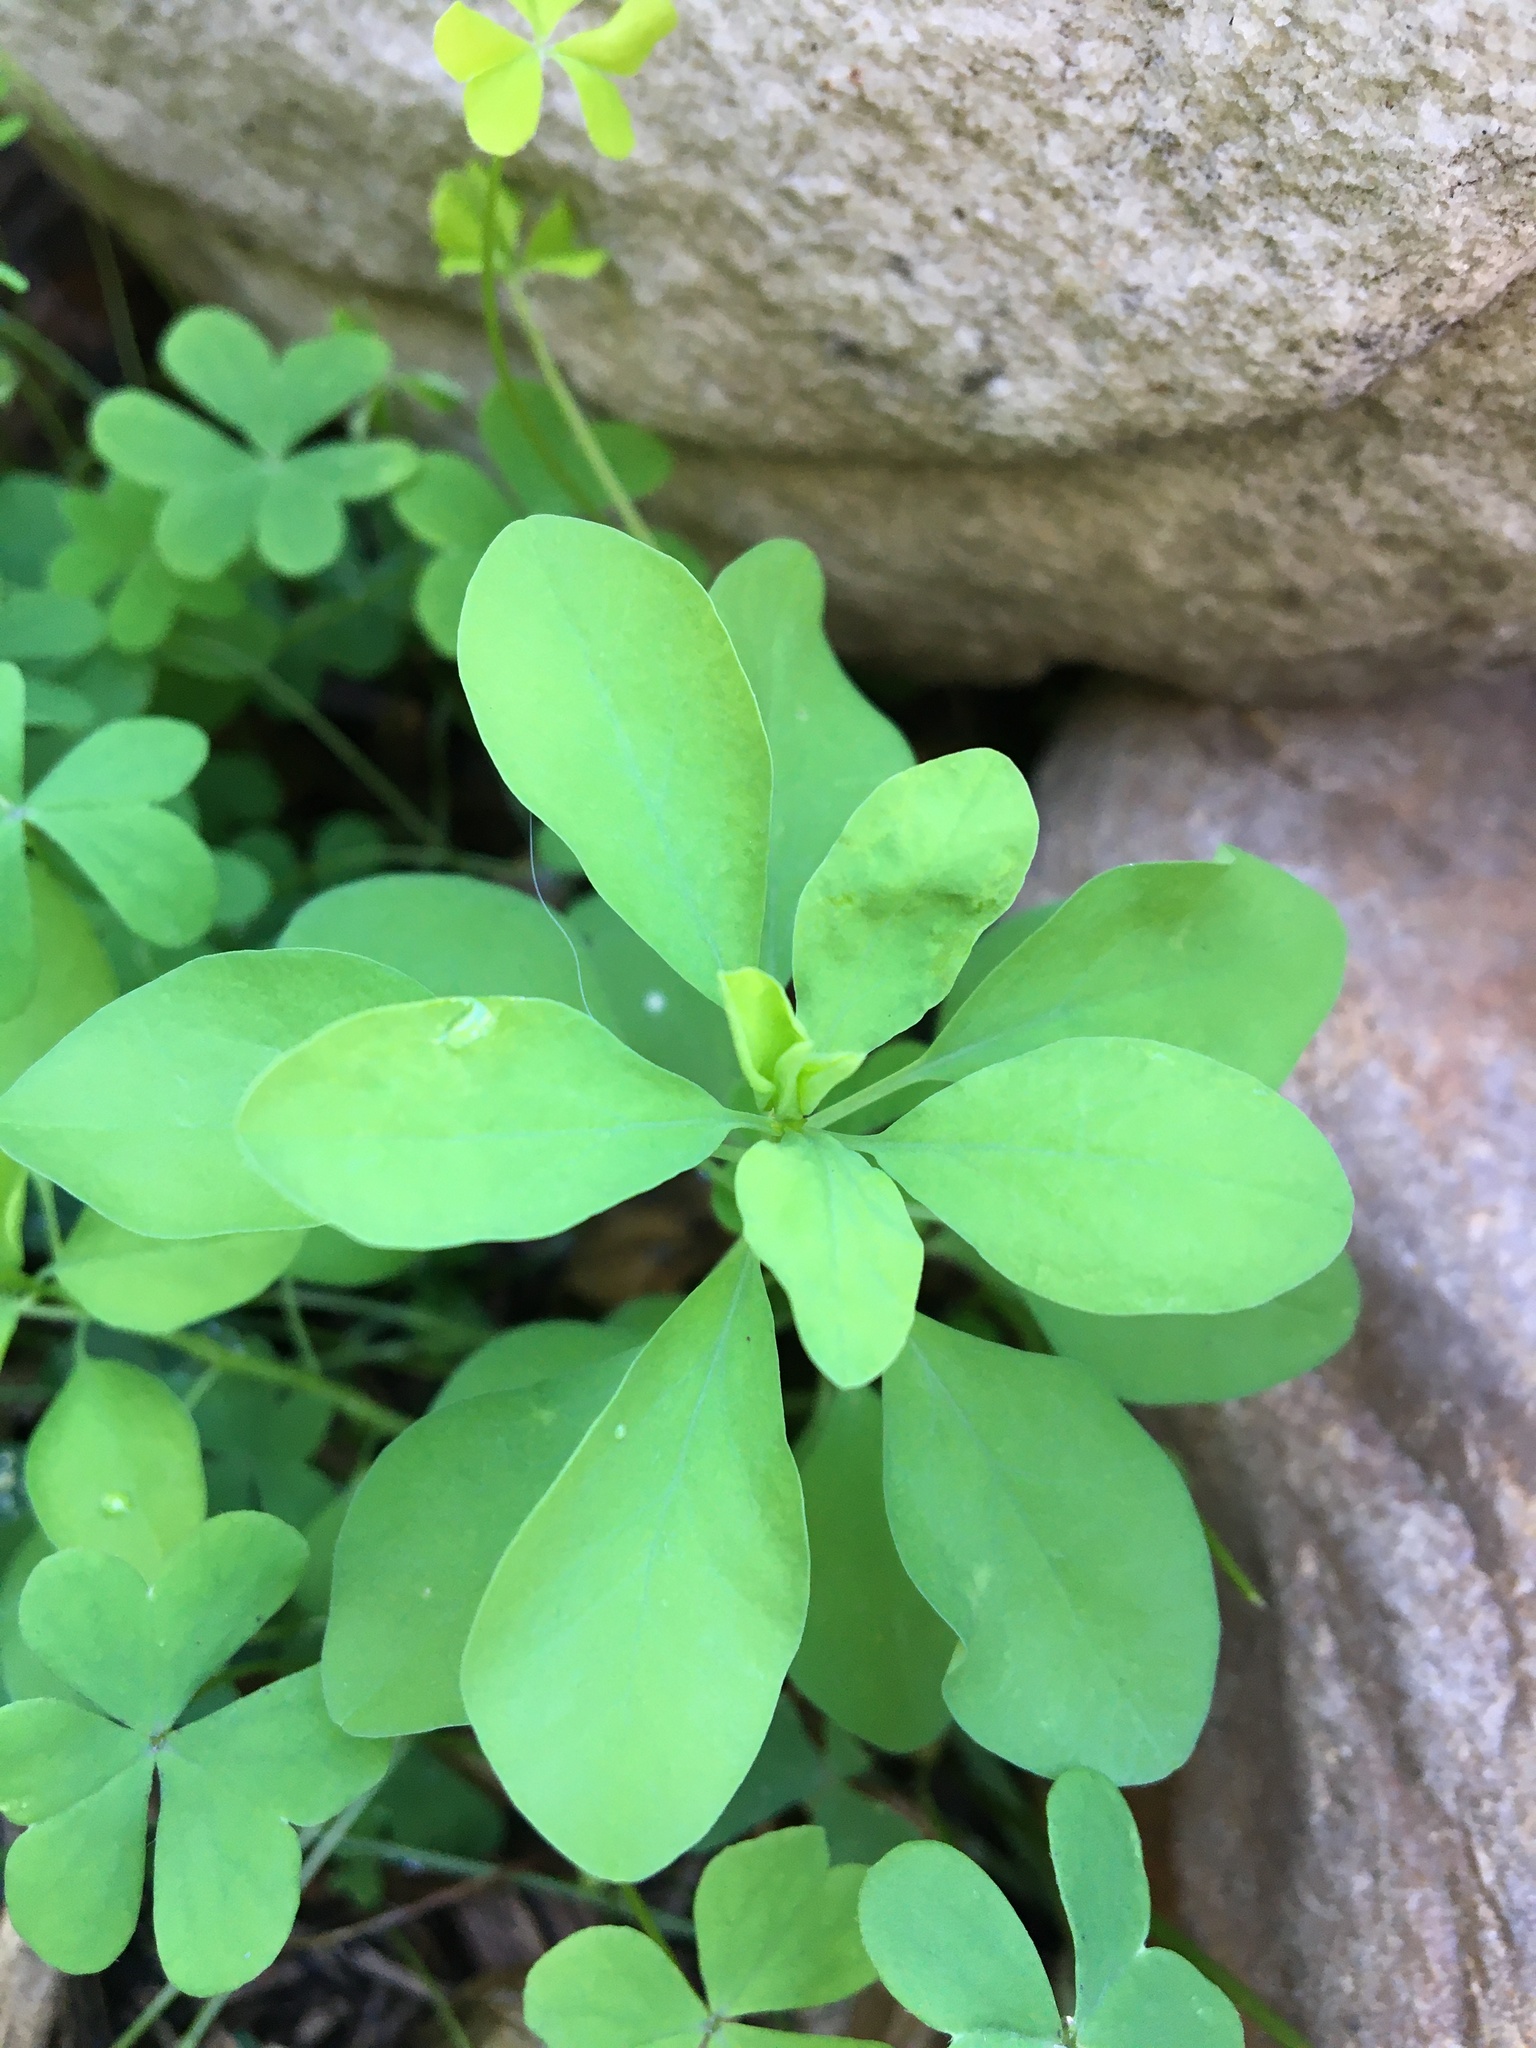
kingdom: Plantae
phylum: Tracheophyta
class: Magnoliopsida
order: Malpighiales
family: Euphorbiaceae
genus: Euphorbia
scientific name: Euphorbia peplus
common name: Petty spurge
